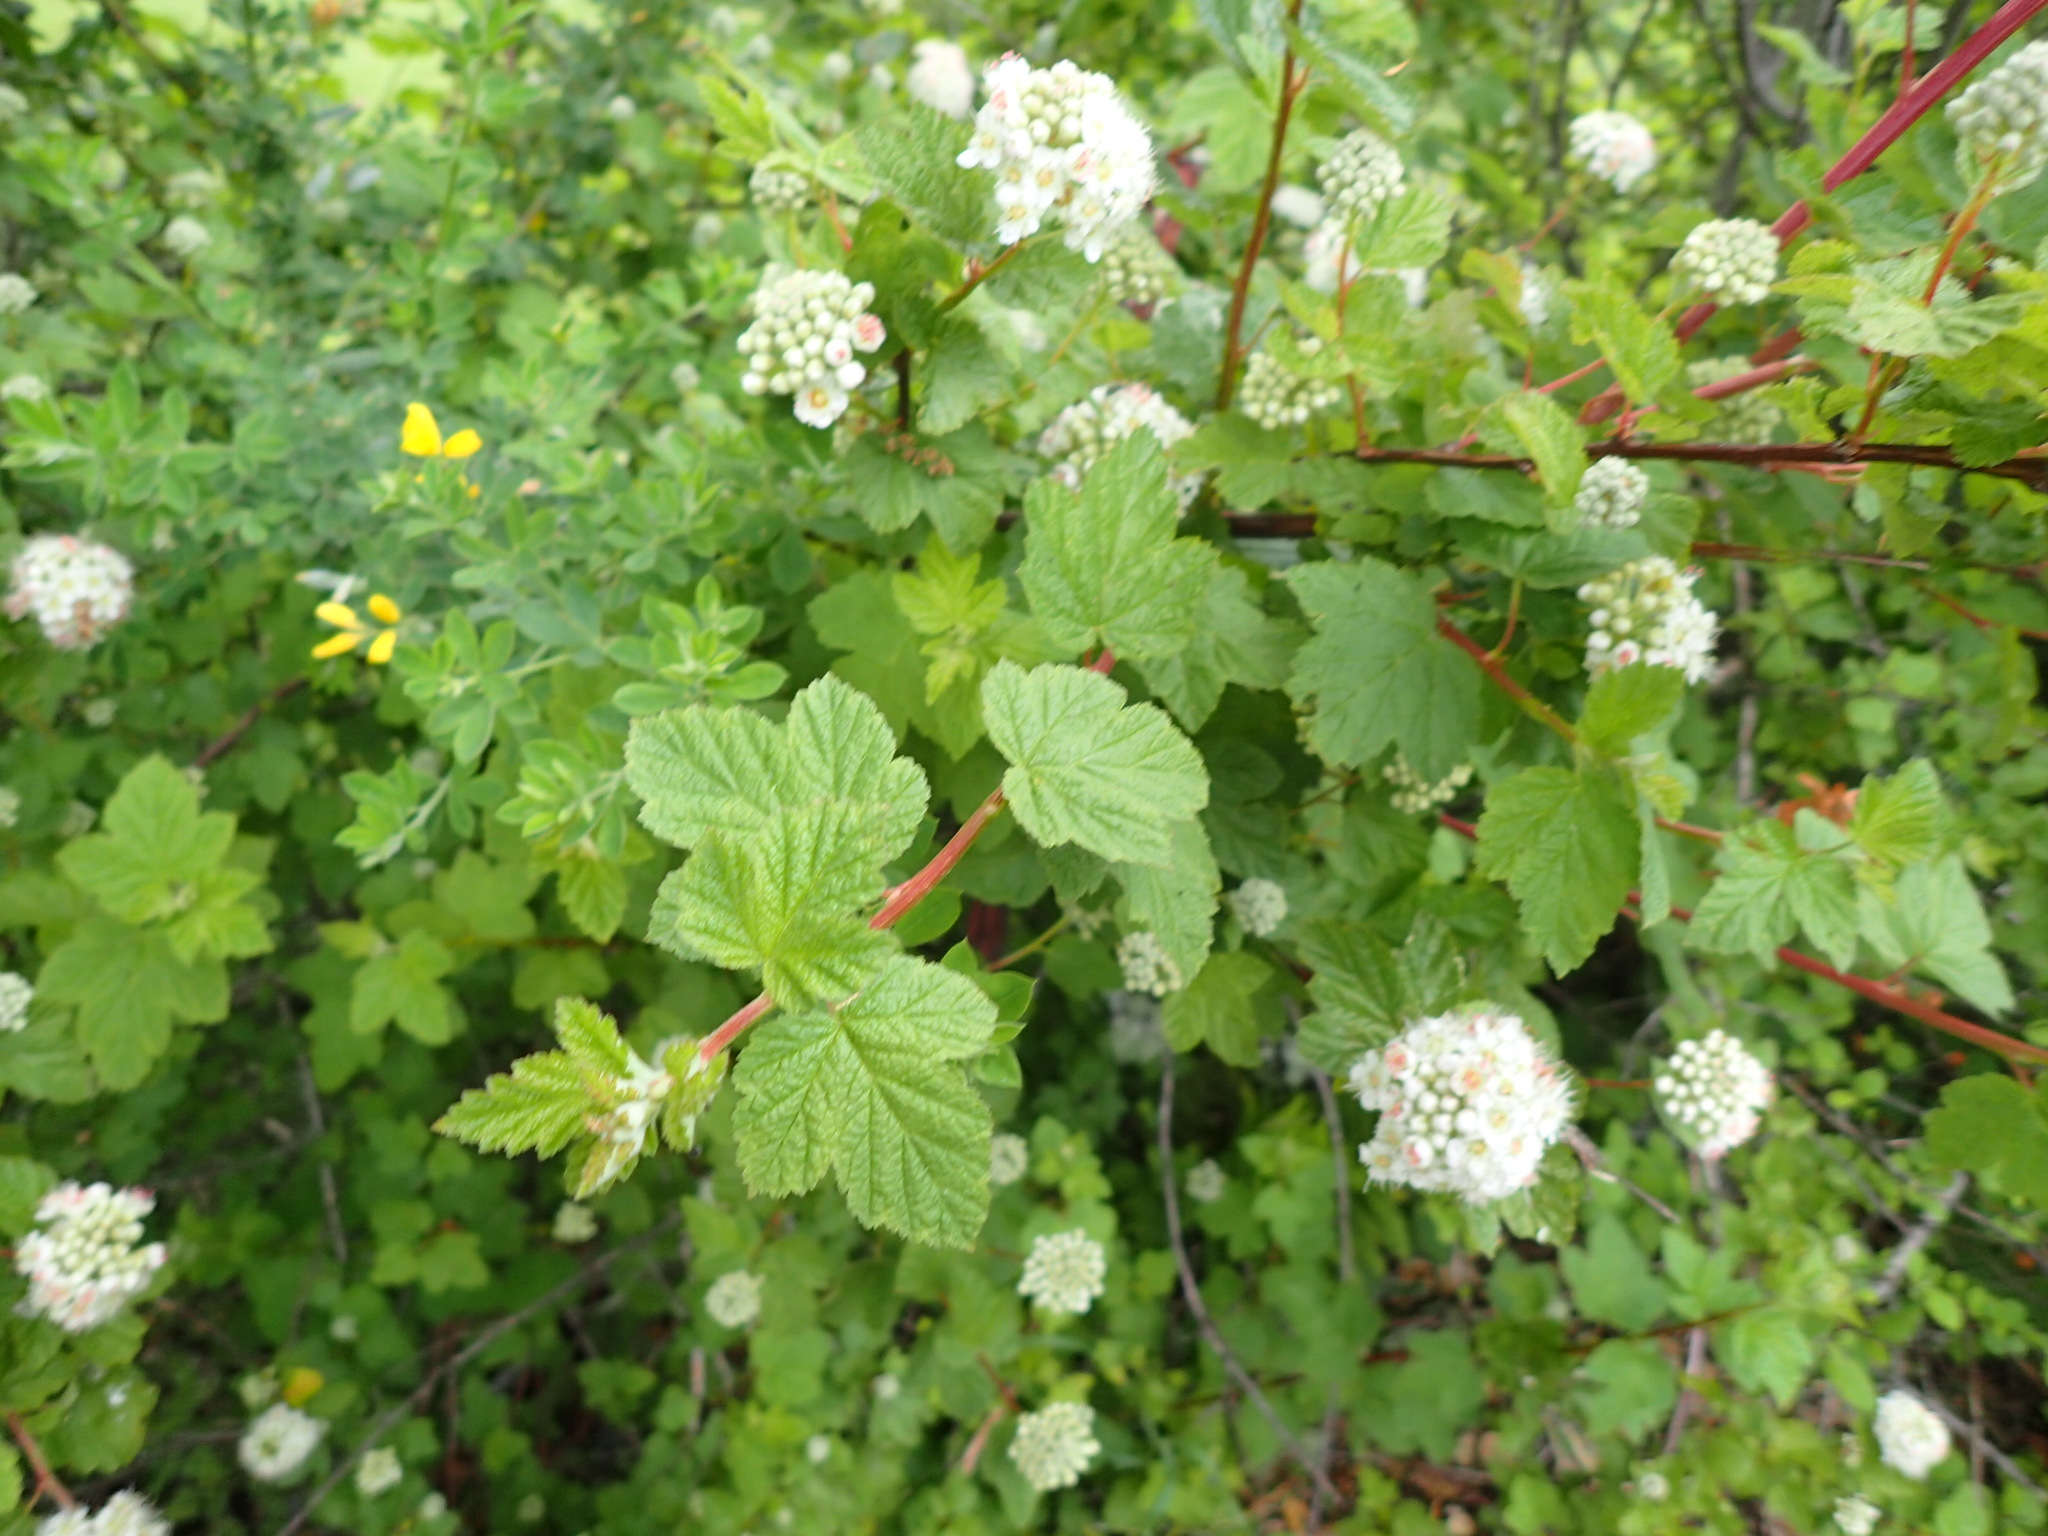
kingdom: Plantae
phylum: Tracheophyta
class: Magnoliopsida
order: Rosales
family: Rosaceae
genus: Physocarpus
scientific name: Physocarpus capitatus
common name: Pacific ninebark
